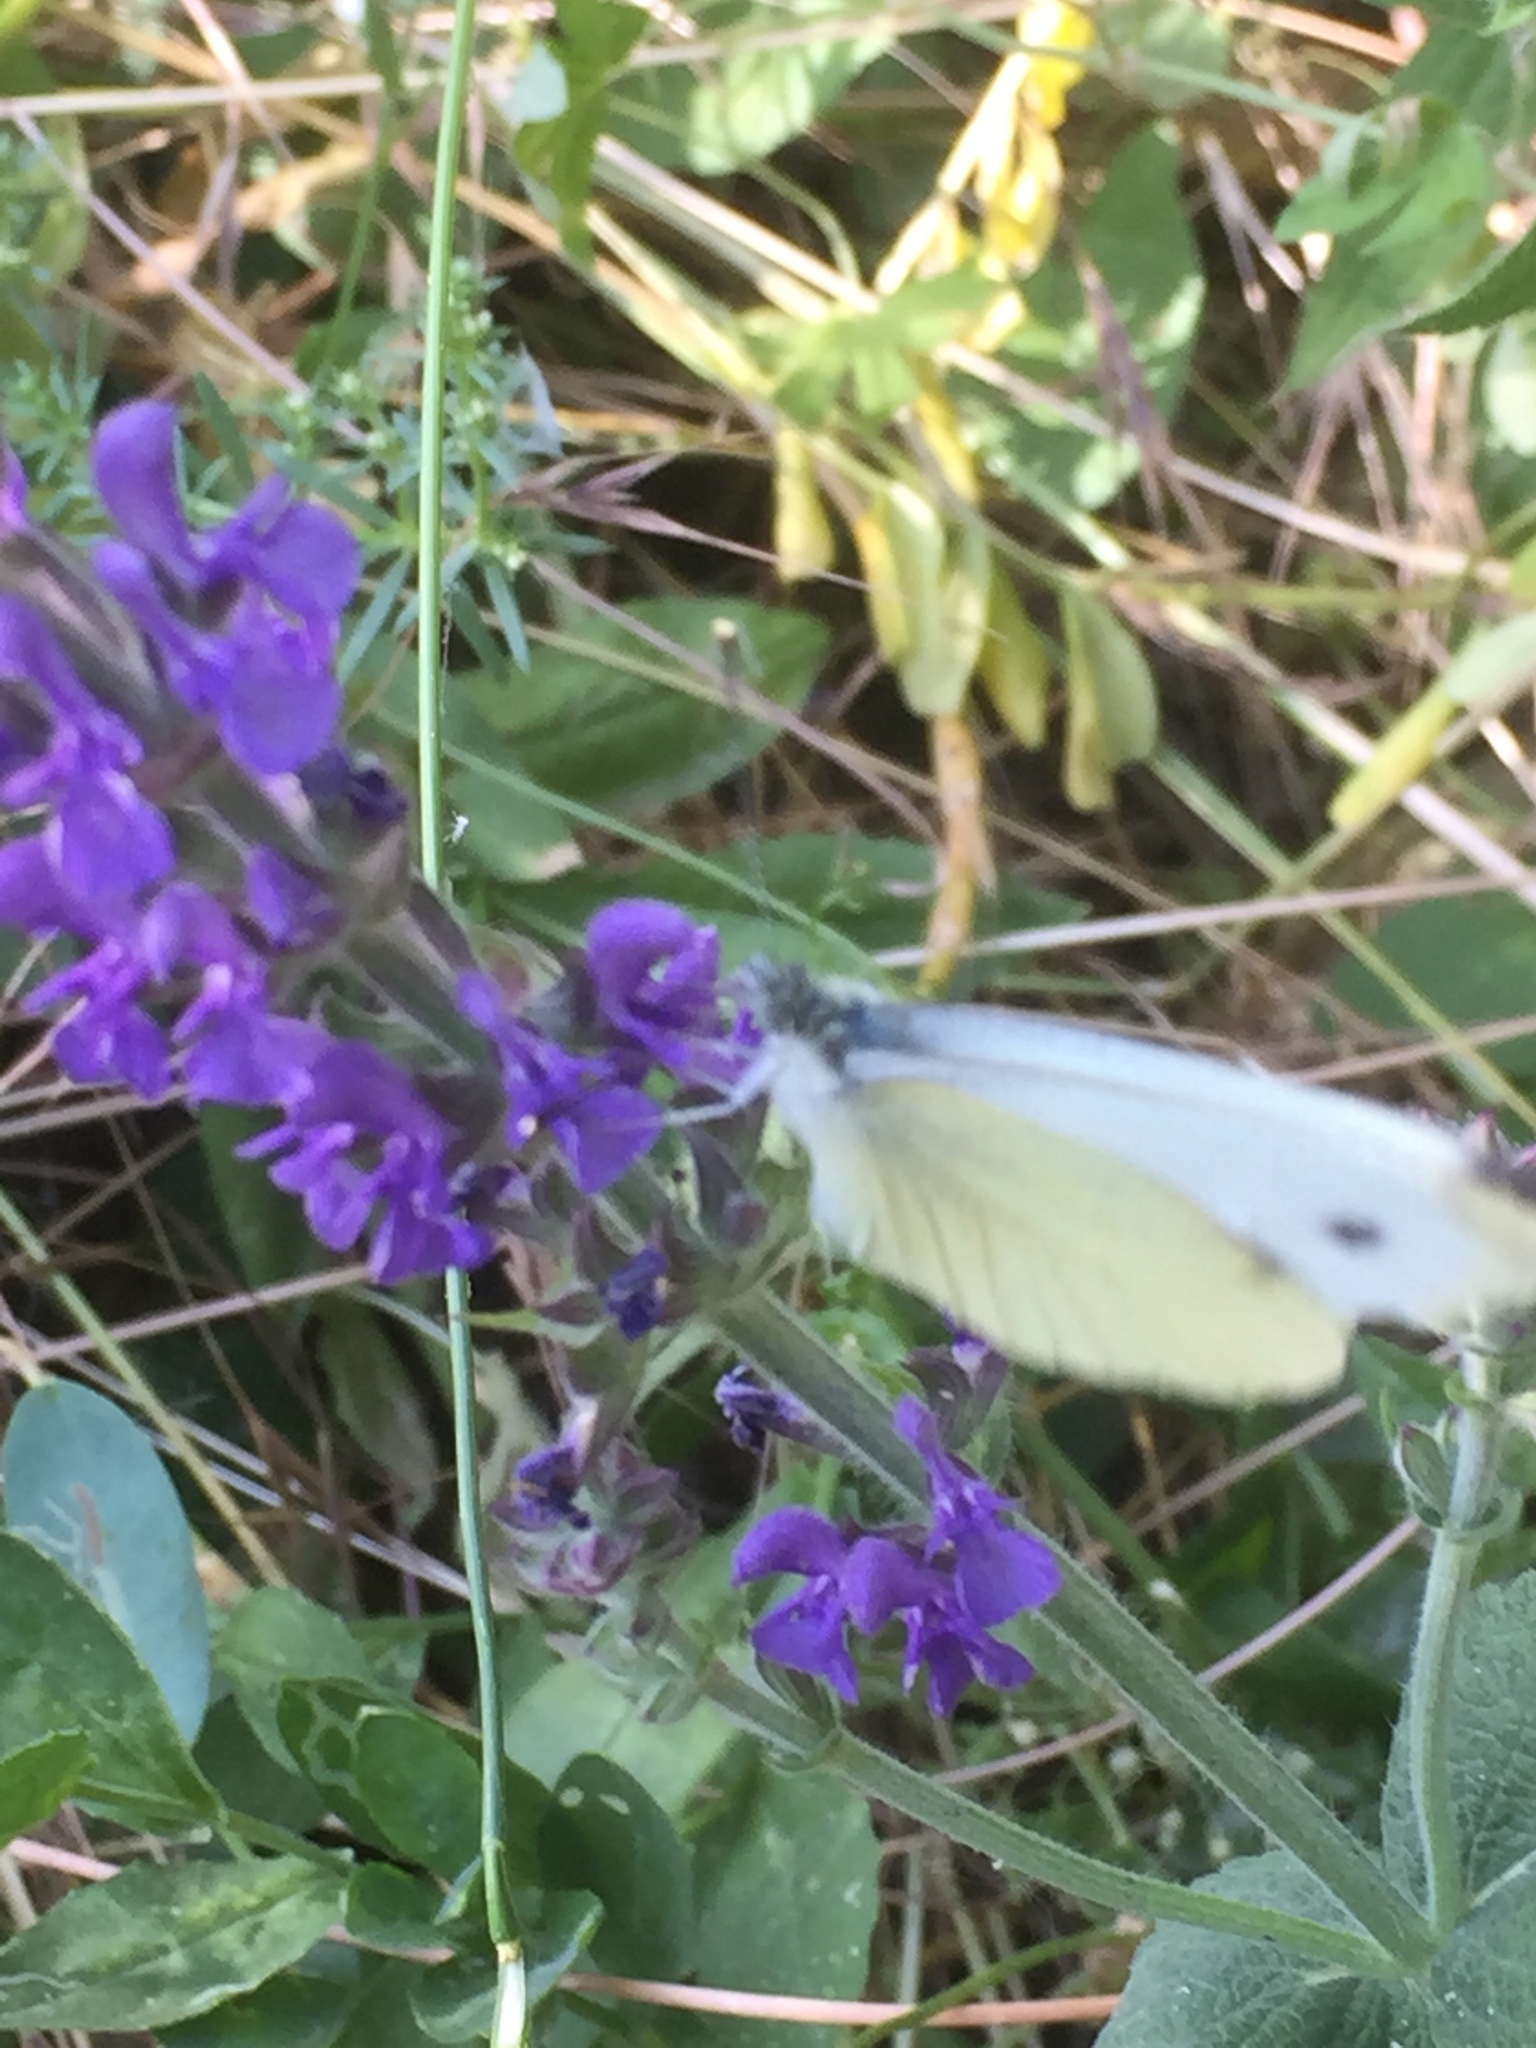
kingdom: Animalia
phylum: Arthropoda
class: Insecta
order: Lepidoptera
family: Pieridae
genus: Pieris
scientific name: Pieris rapae
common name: Small white
